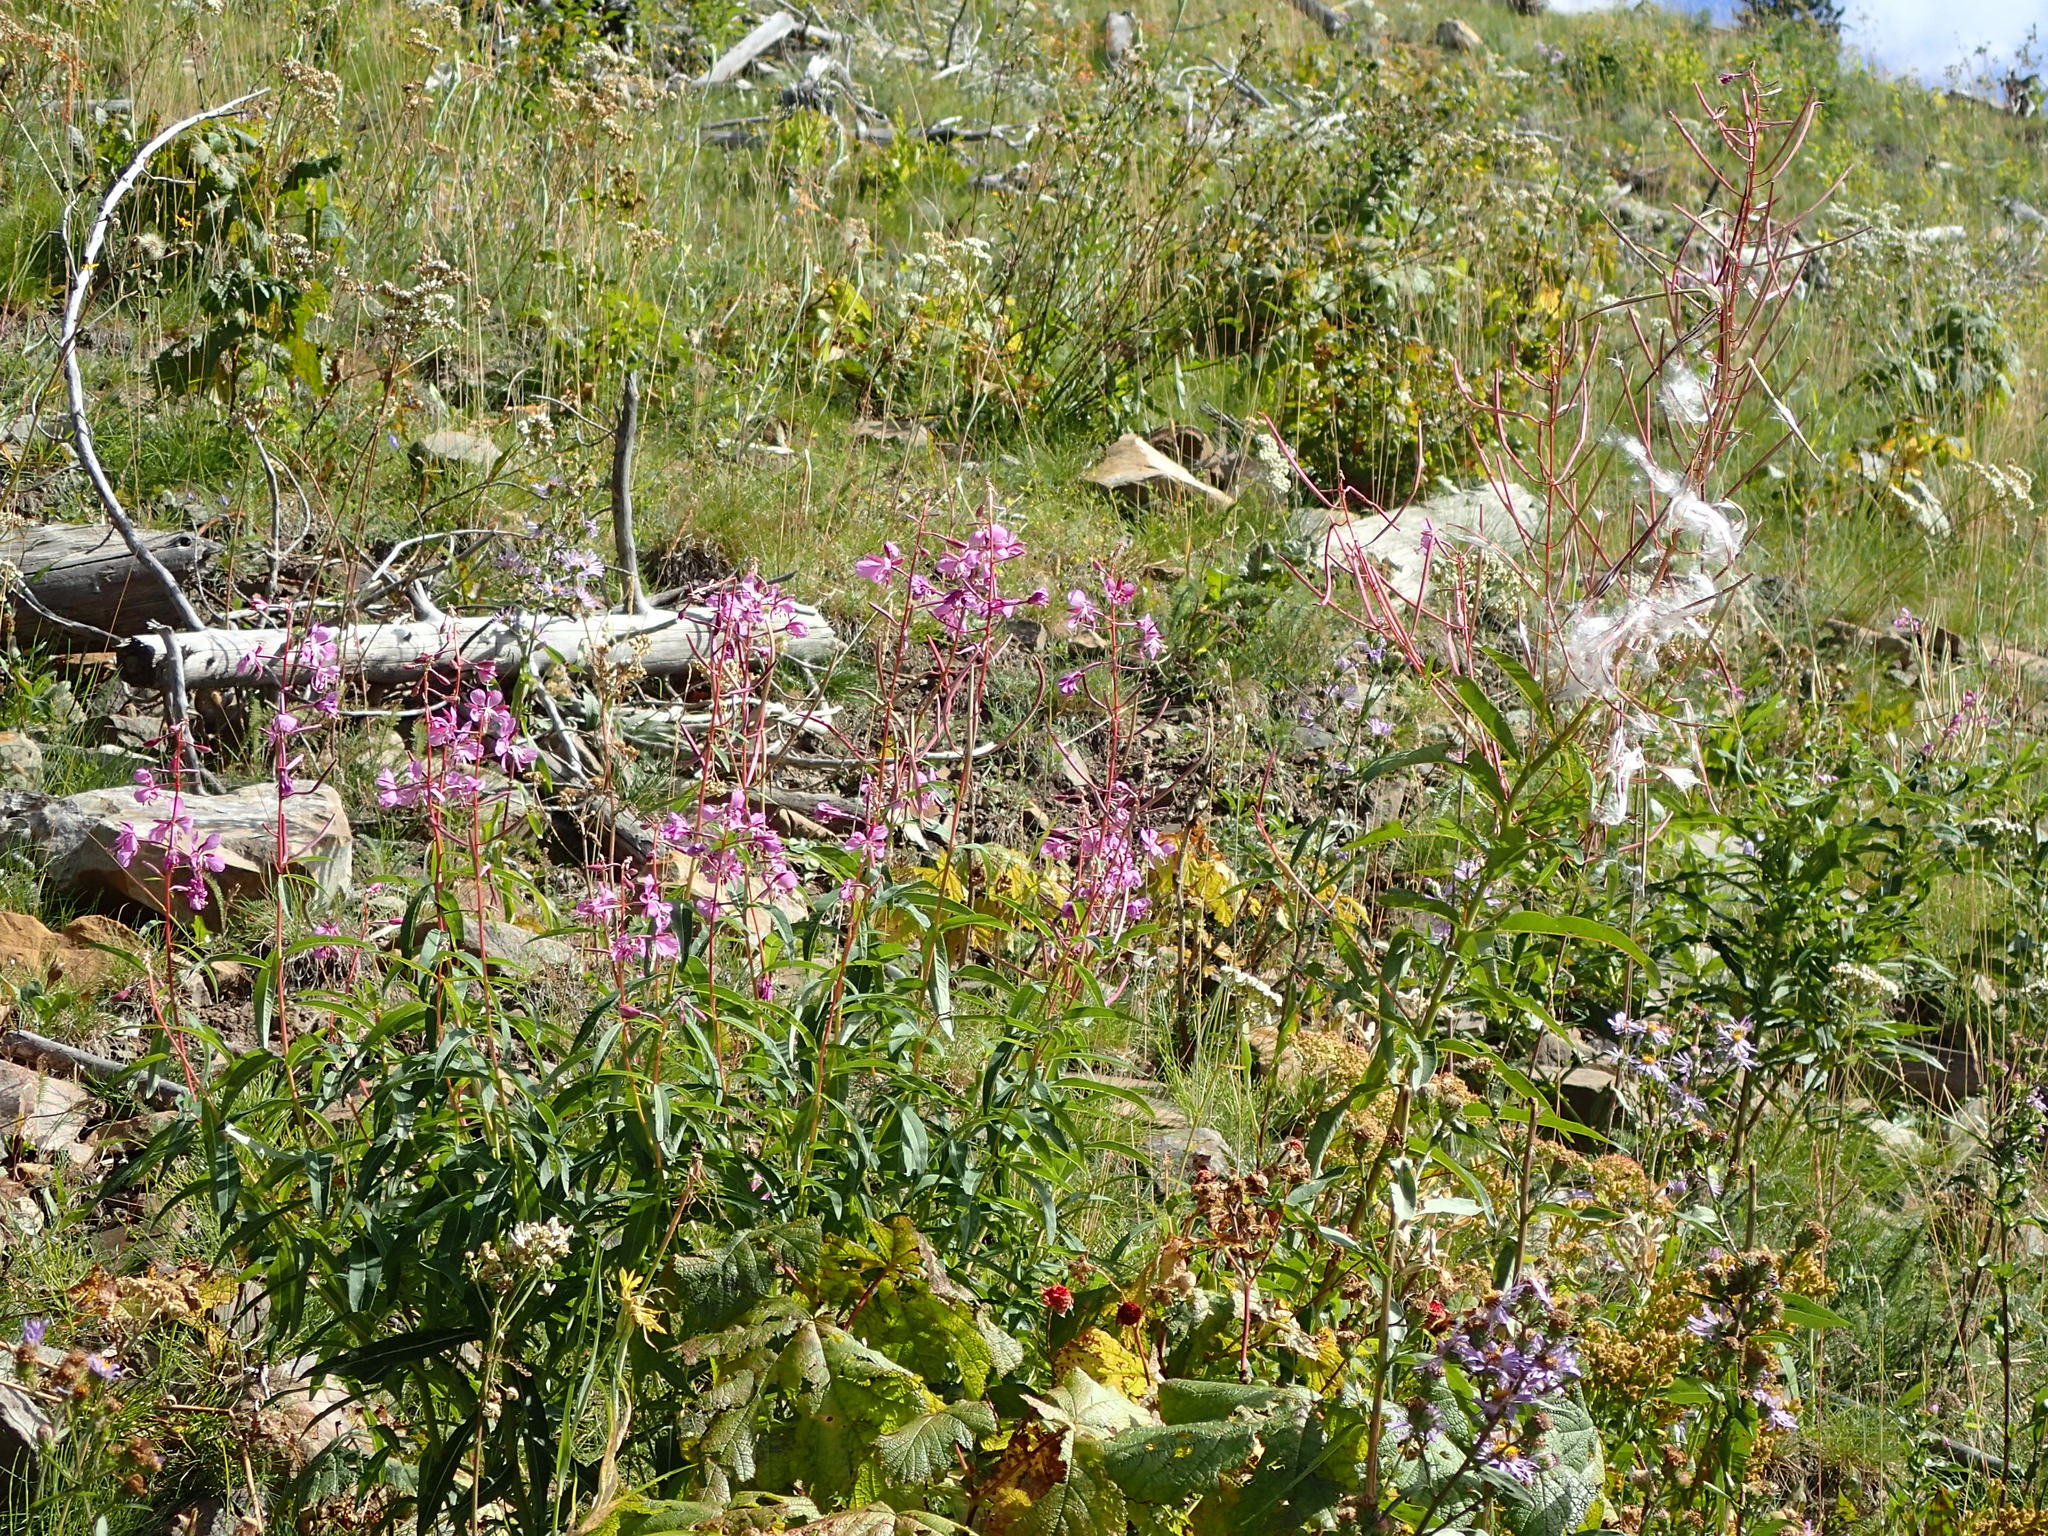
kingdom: Plantae
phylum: Tracheophyta
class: Magnoliopsida
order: Myrtales
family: Onagraceae
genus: Chamaenerion
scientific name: Chamaenerion angustifolium
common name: Fireweed
